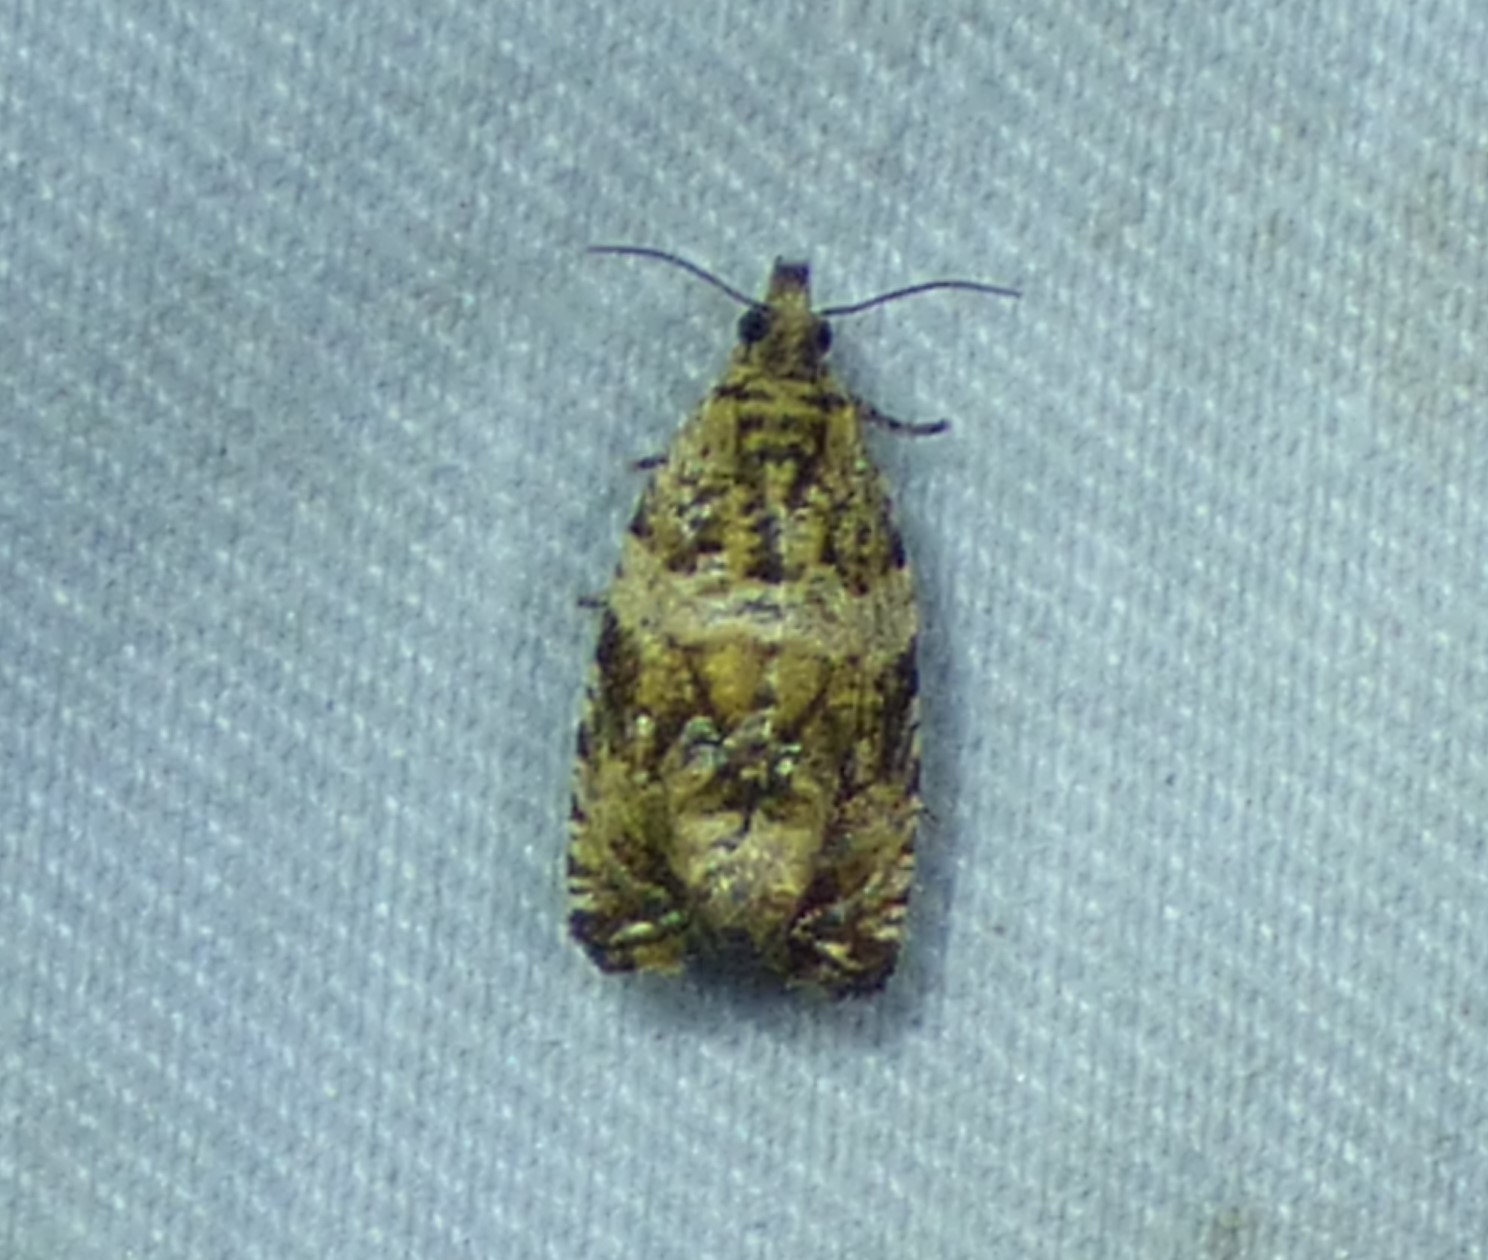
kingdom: Animalia
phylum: Arthropoda
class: Insecta
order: Lepidoptera
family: Tortricidae
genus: Celypha
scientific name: Celypha cespitana
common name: Thyme marble
